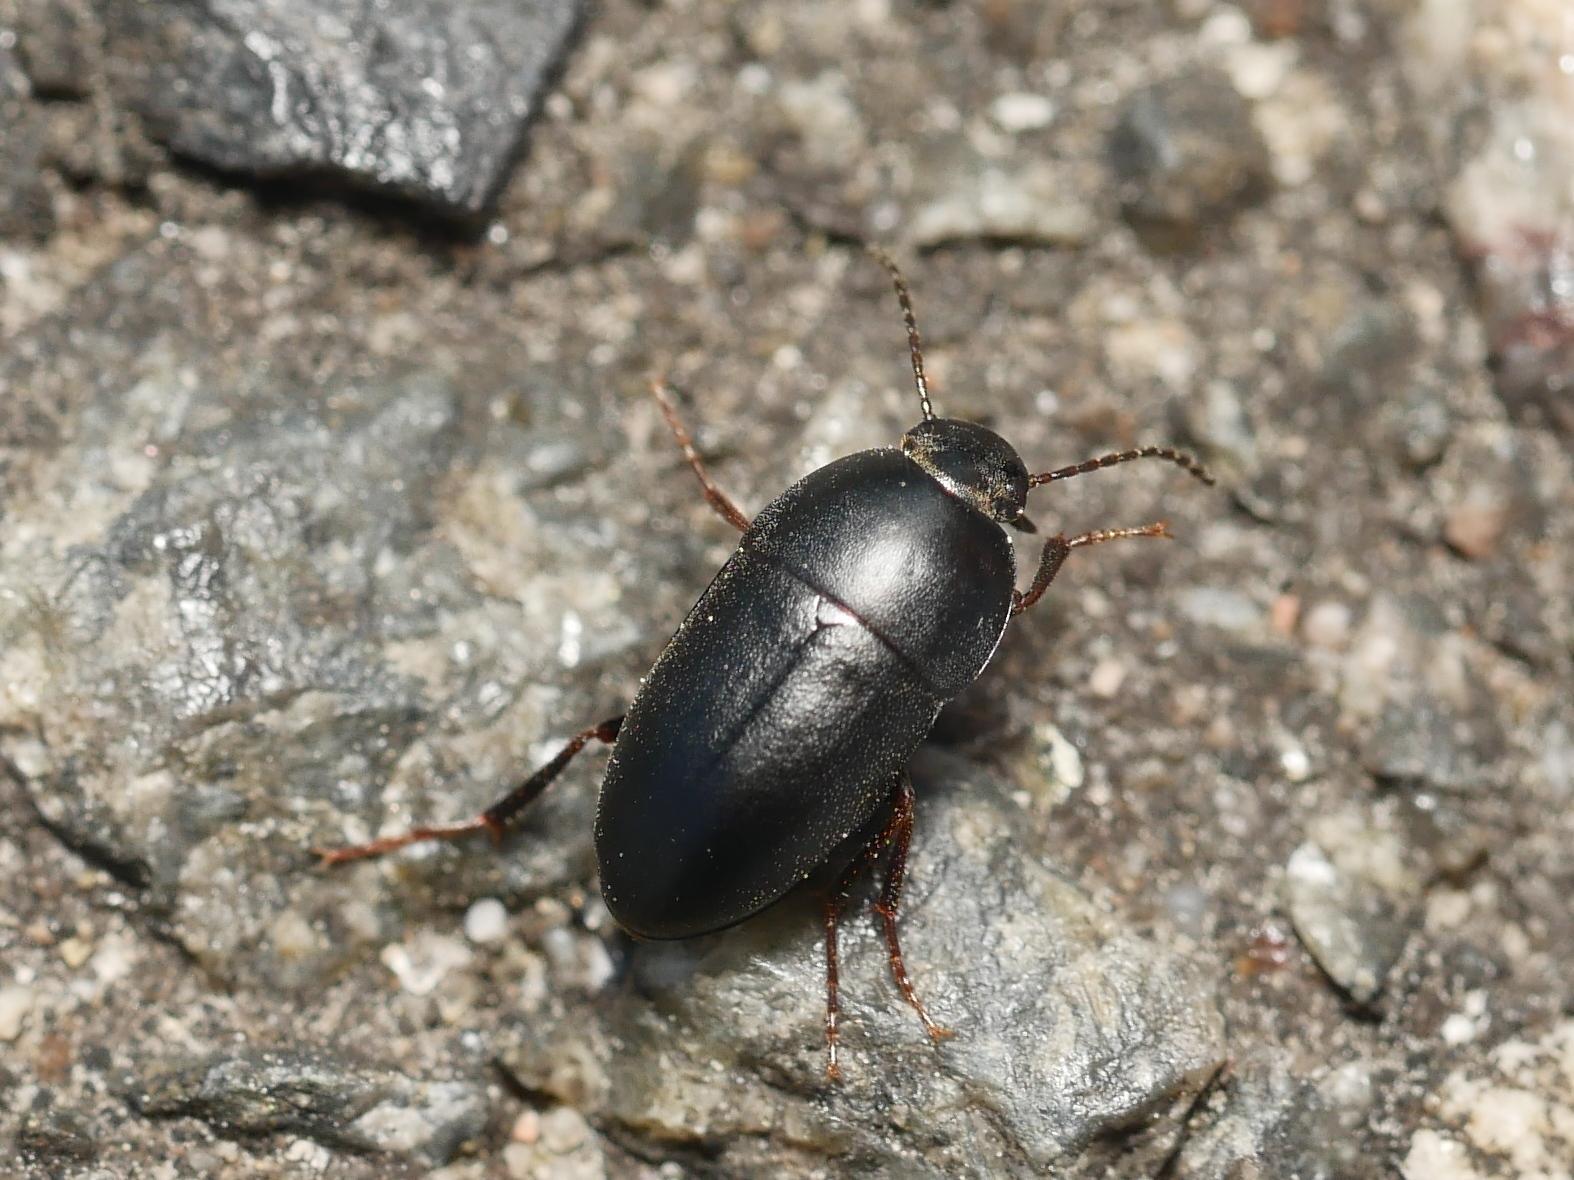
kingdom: Animalia
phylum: Arthropoda
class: Insecta
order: Coleoptera
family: Tenebrionidae
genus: Crypticus
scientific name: Crypticus quisquilius
